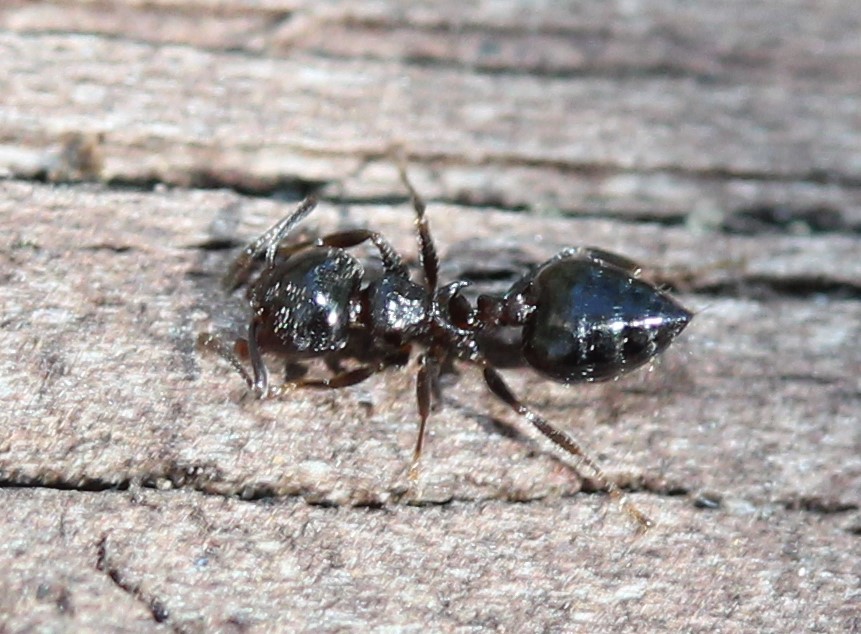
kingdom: Animalia
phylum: Arthropoda
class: Insecta
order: Hymenoptera
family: Formicidae
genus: Crematogaster
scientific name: Crematogaster ashmeadi
